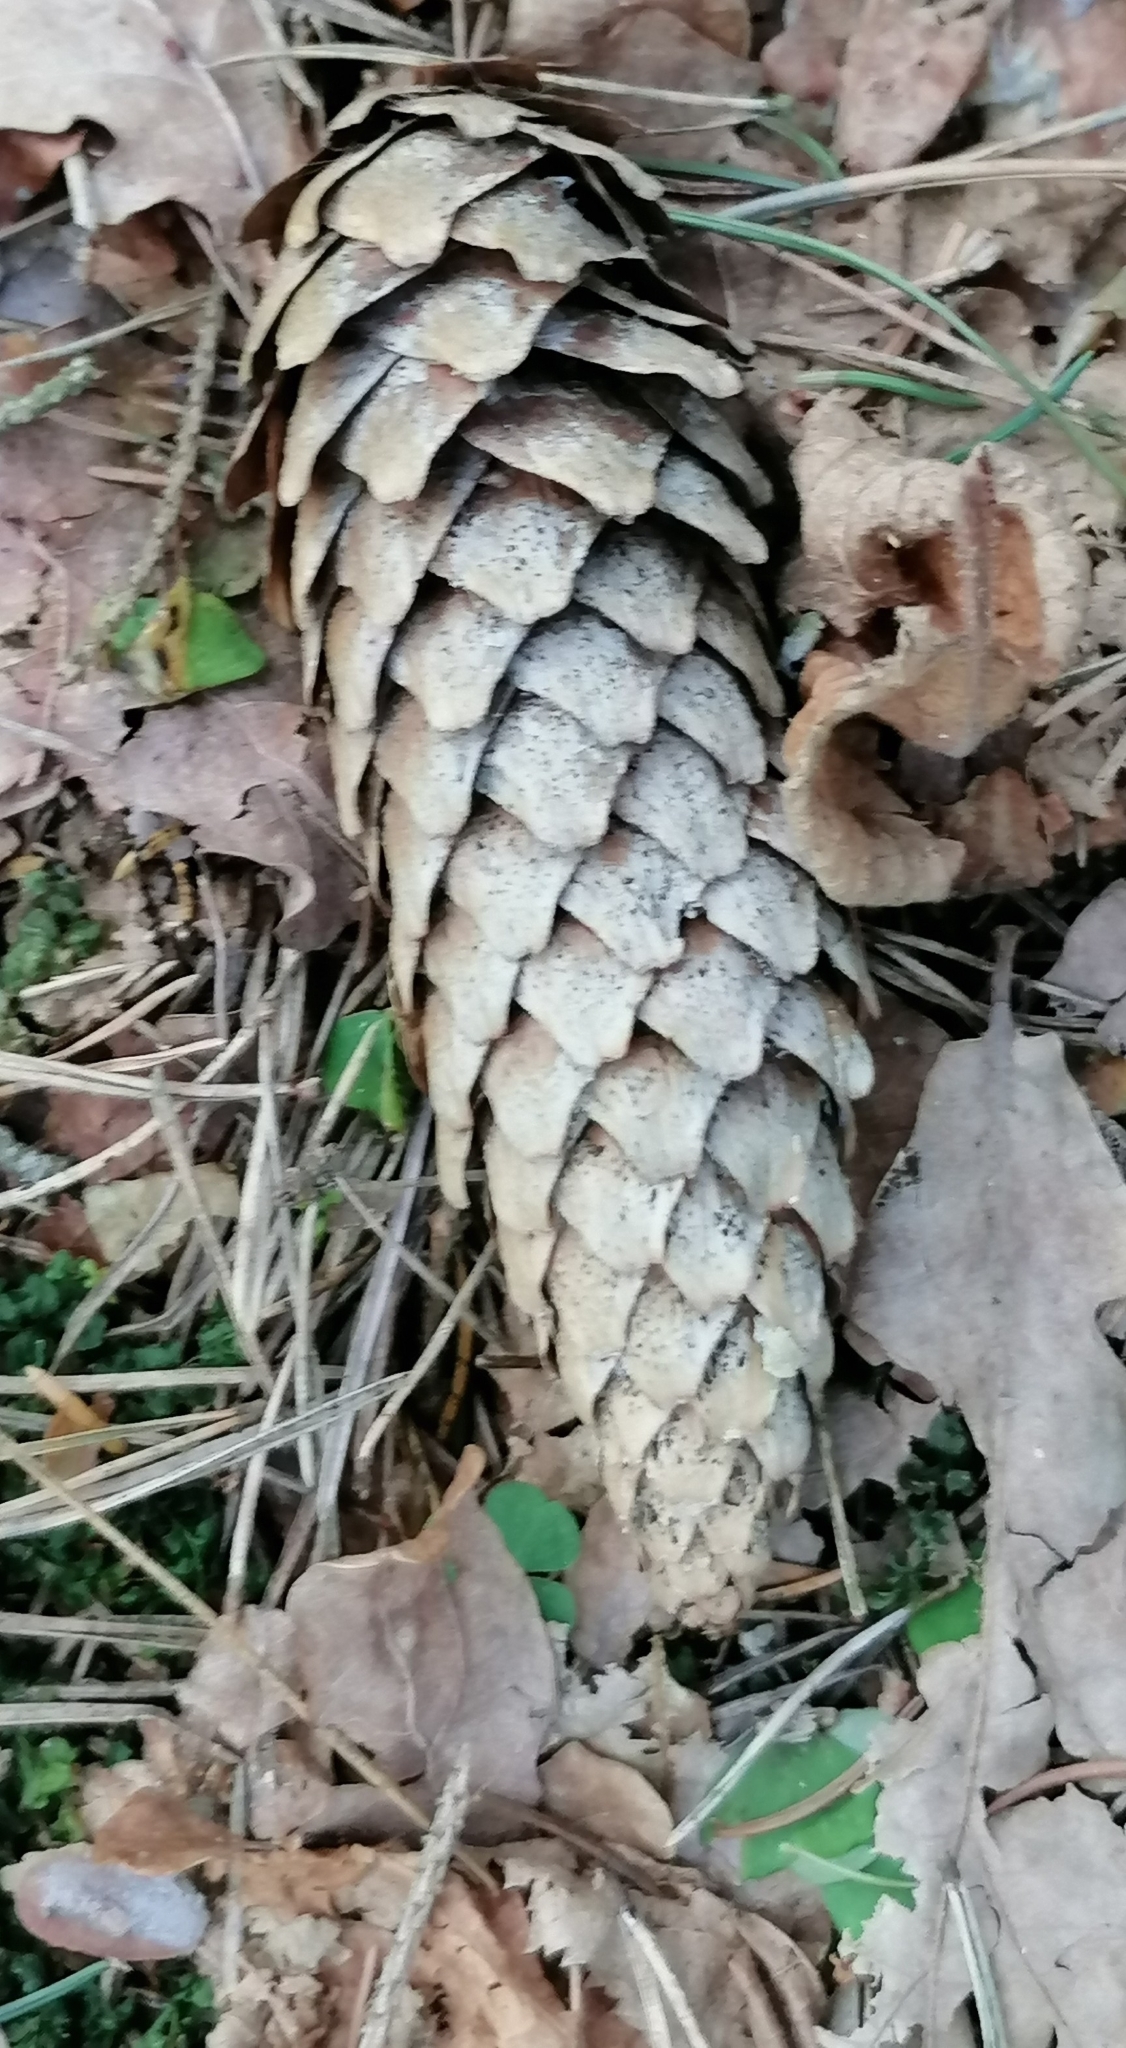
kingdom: Plantae
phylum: Tracheophyta
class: Pinopsida
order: Pinales
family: Pinaceae
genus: Picea
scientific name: Picea abies
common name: Norway spruce
